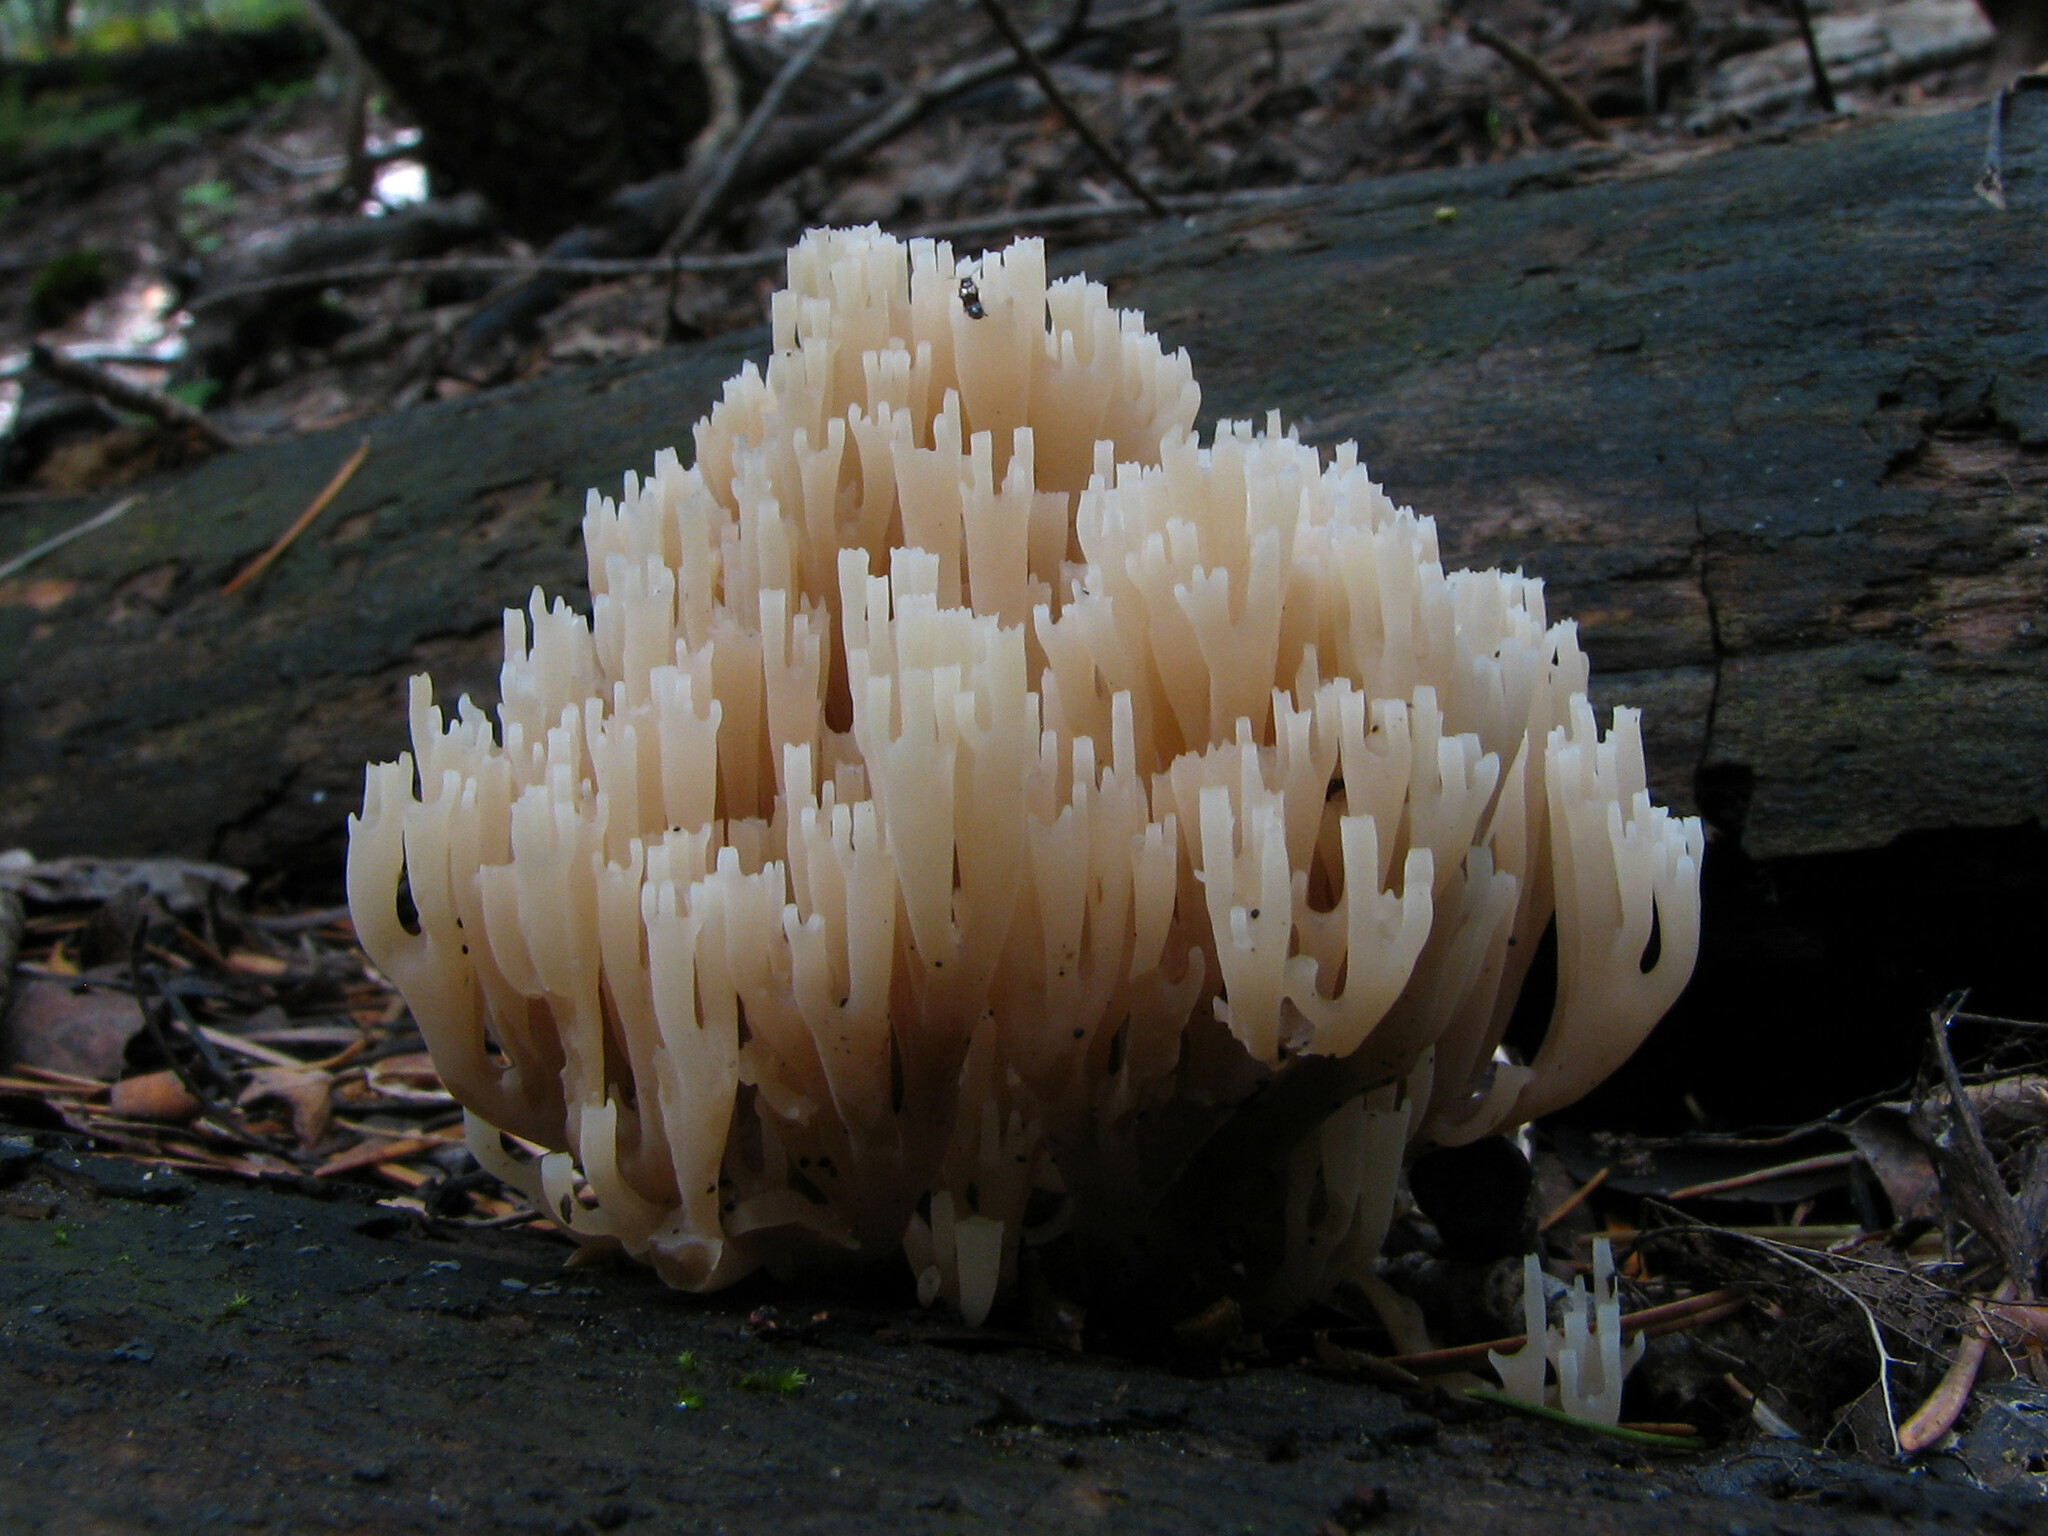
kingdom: Fungi
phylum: Basidiomycota
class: Agaricomycetes
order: Russulales
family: Auriscalpiaceae
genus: Artomyces
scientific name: Artomyces pyxidatus
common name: Crown-tipped coral fungus
